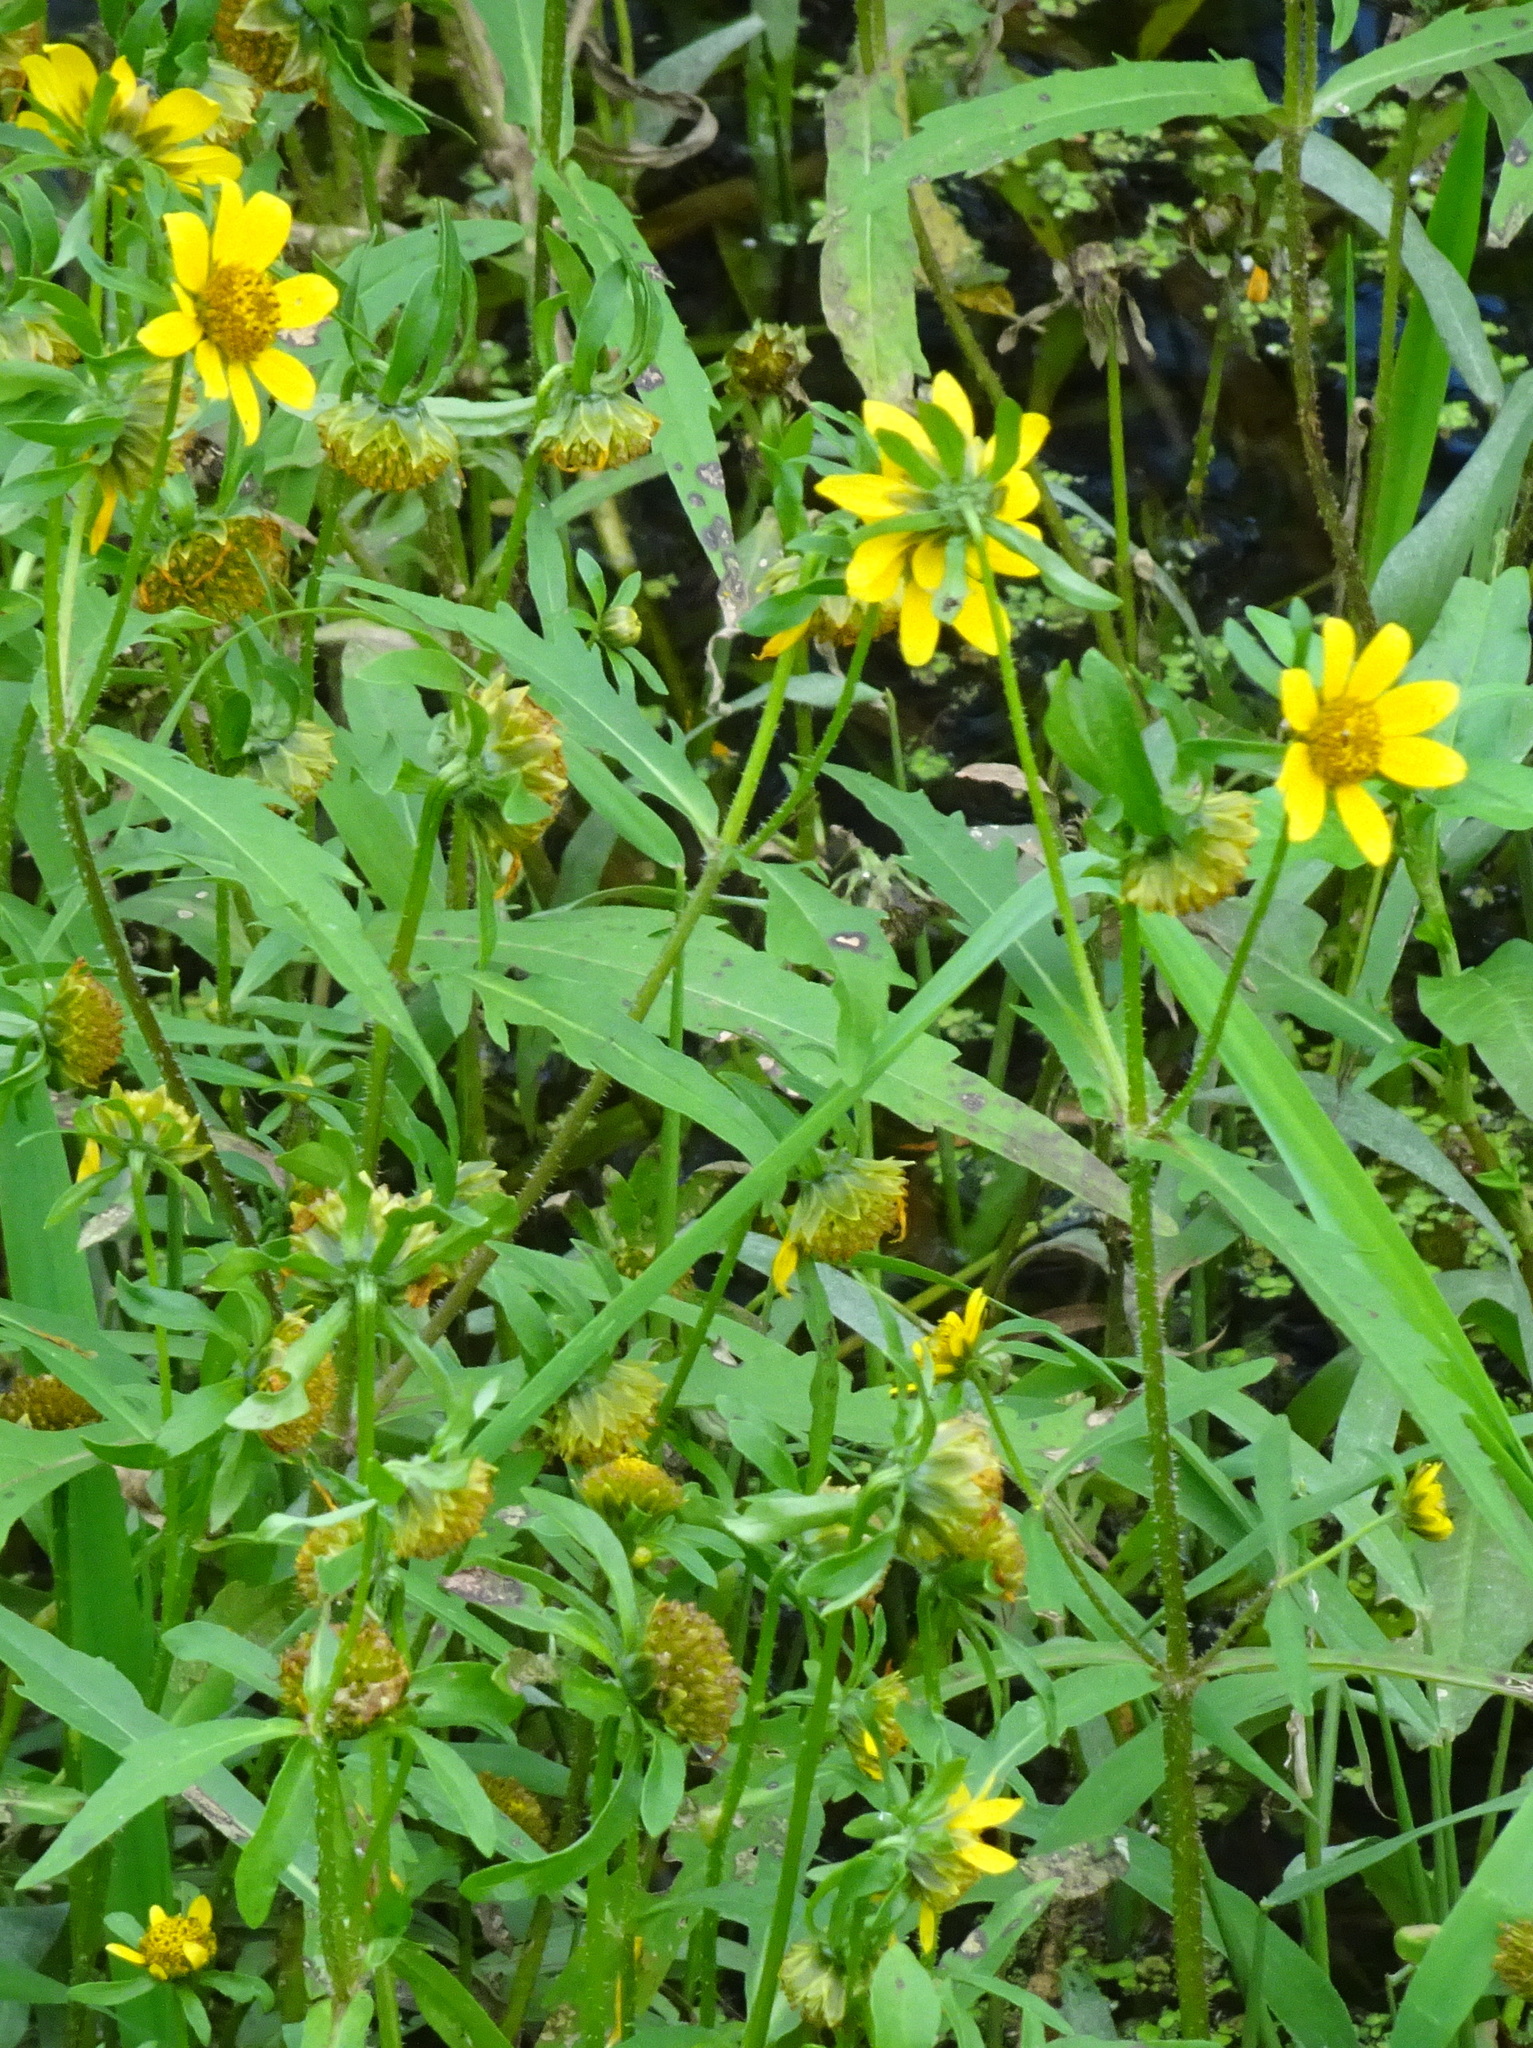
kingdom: Plantae
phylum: Tracheophyta
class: Magnoliopsida
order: Asterales
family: Asteraceae
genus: Bidens
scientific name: Bidens cernua
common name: Nodding bur-marigold
